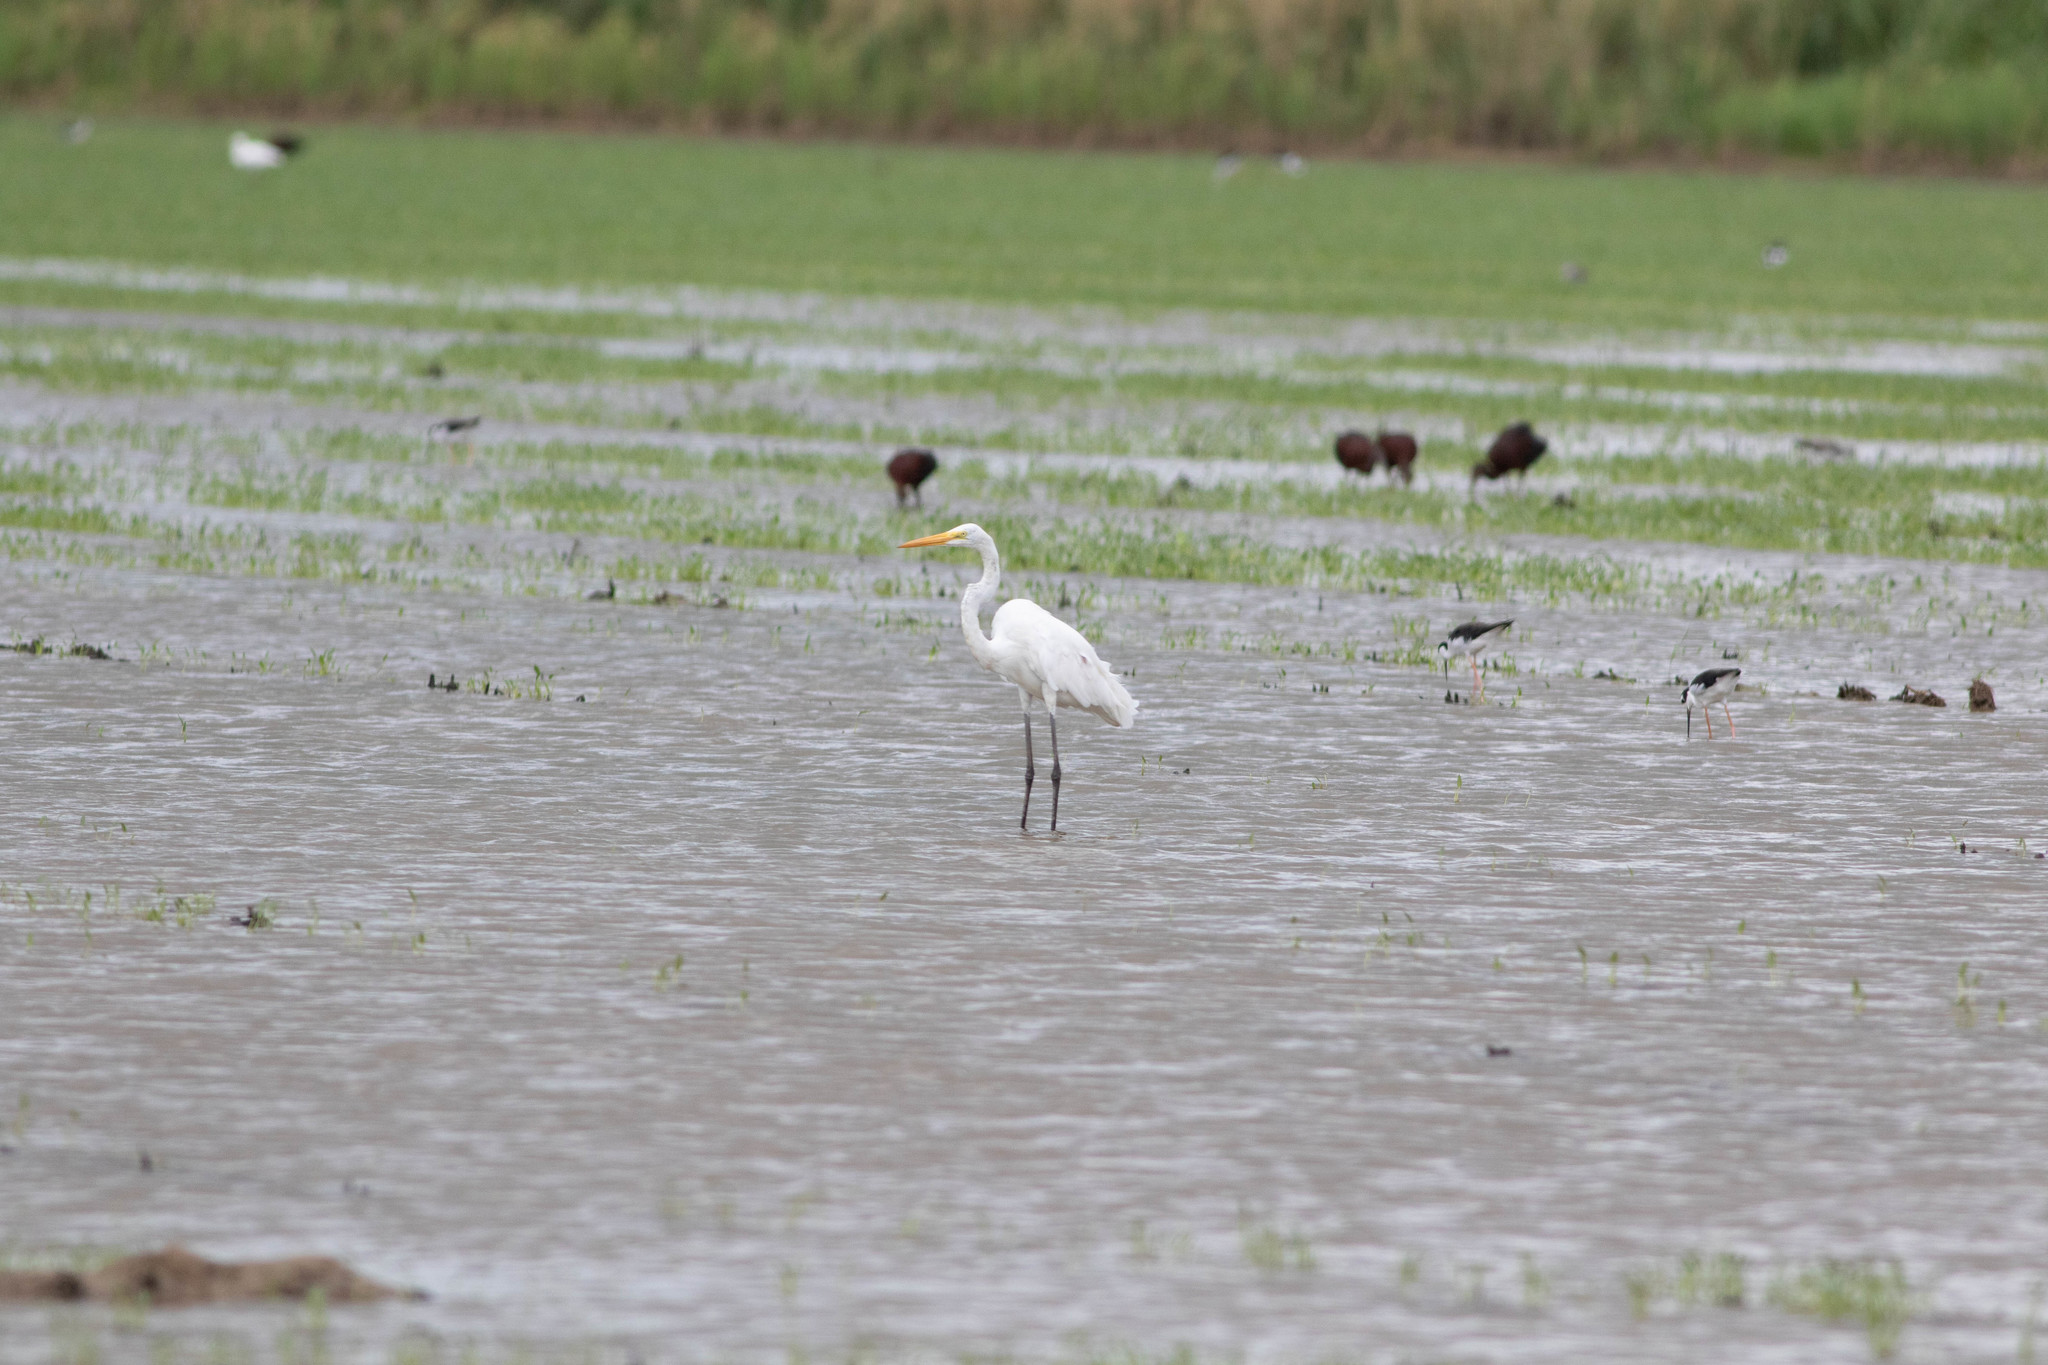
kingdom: Animalia
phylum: Chordata
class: Aves
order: Pelecaniformes
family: Ardeidae
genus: Ardea
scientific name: Ardea alba
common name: Great egret
